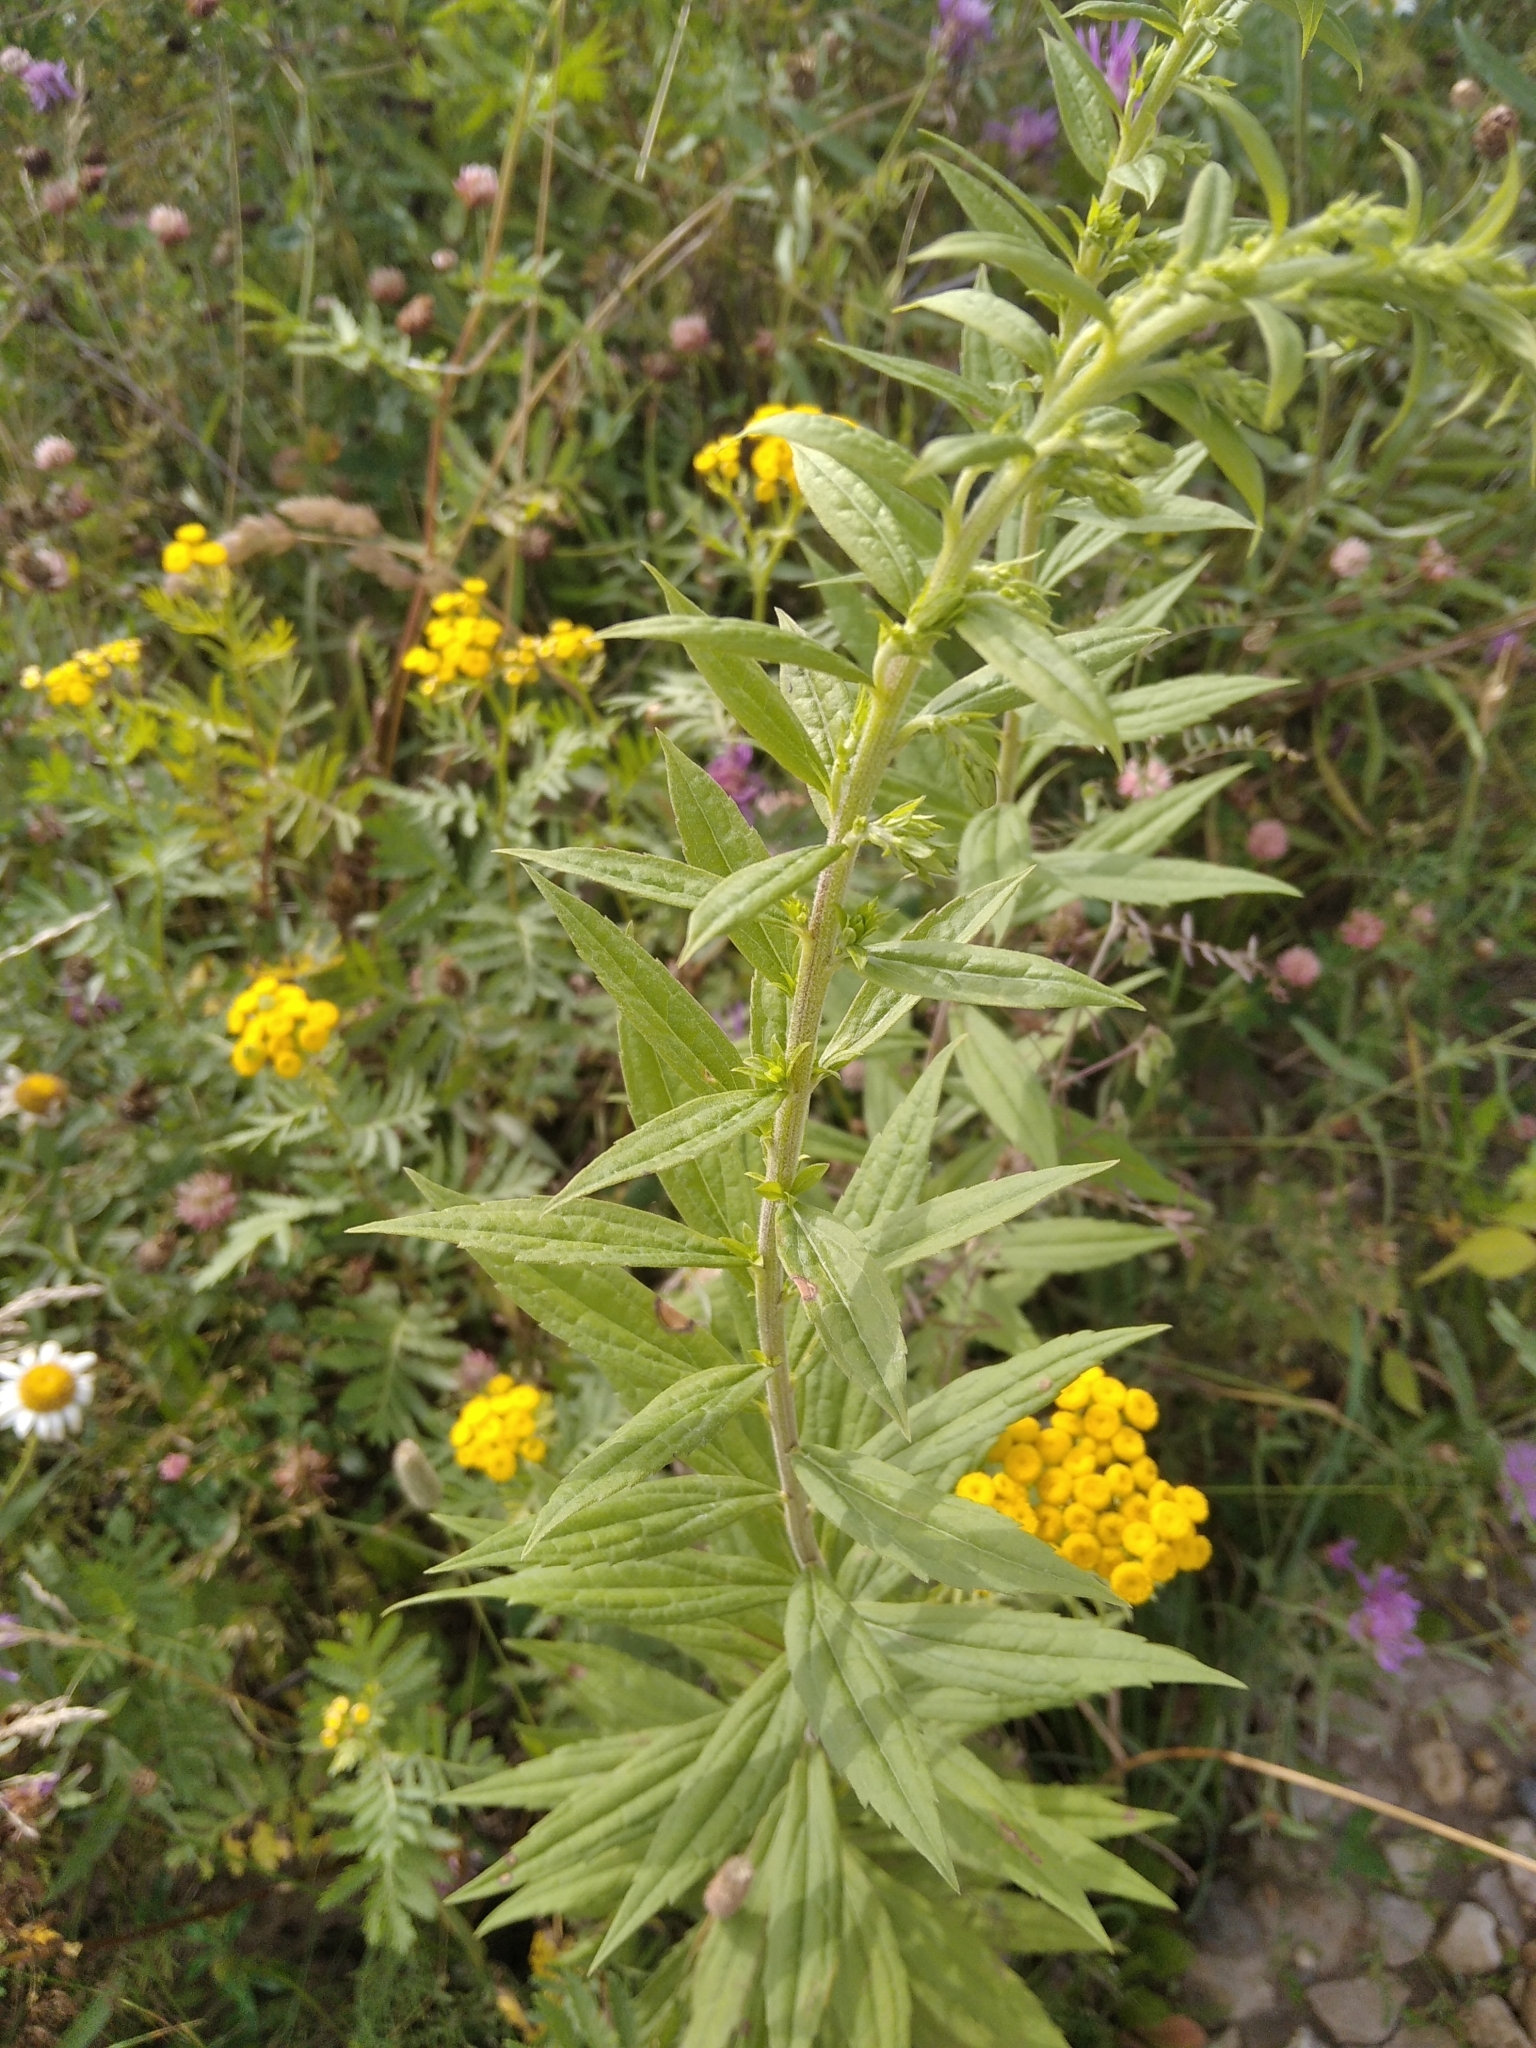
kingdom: Plantae
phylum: Tracheophyta
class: Magnoliopsida
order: Asterales
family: Asteraceae
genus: Solidago
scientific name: Solidago canadensis
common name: Canada goldenrod
